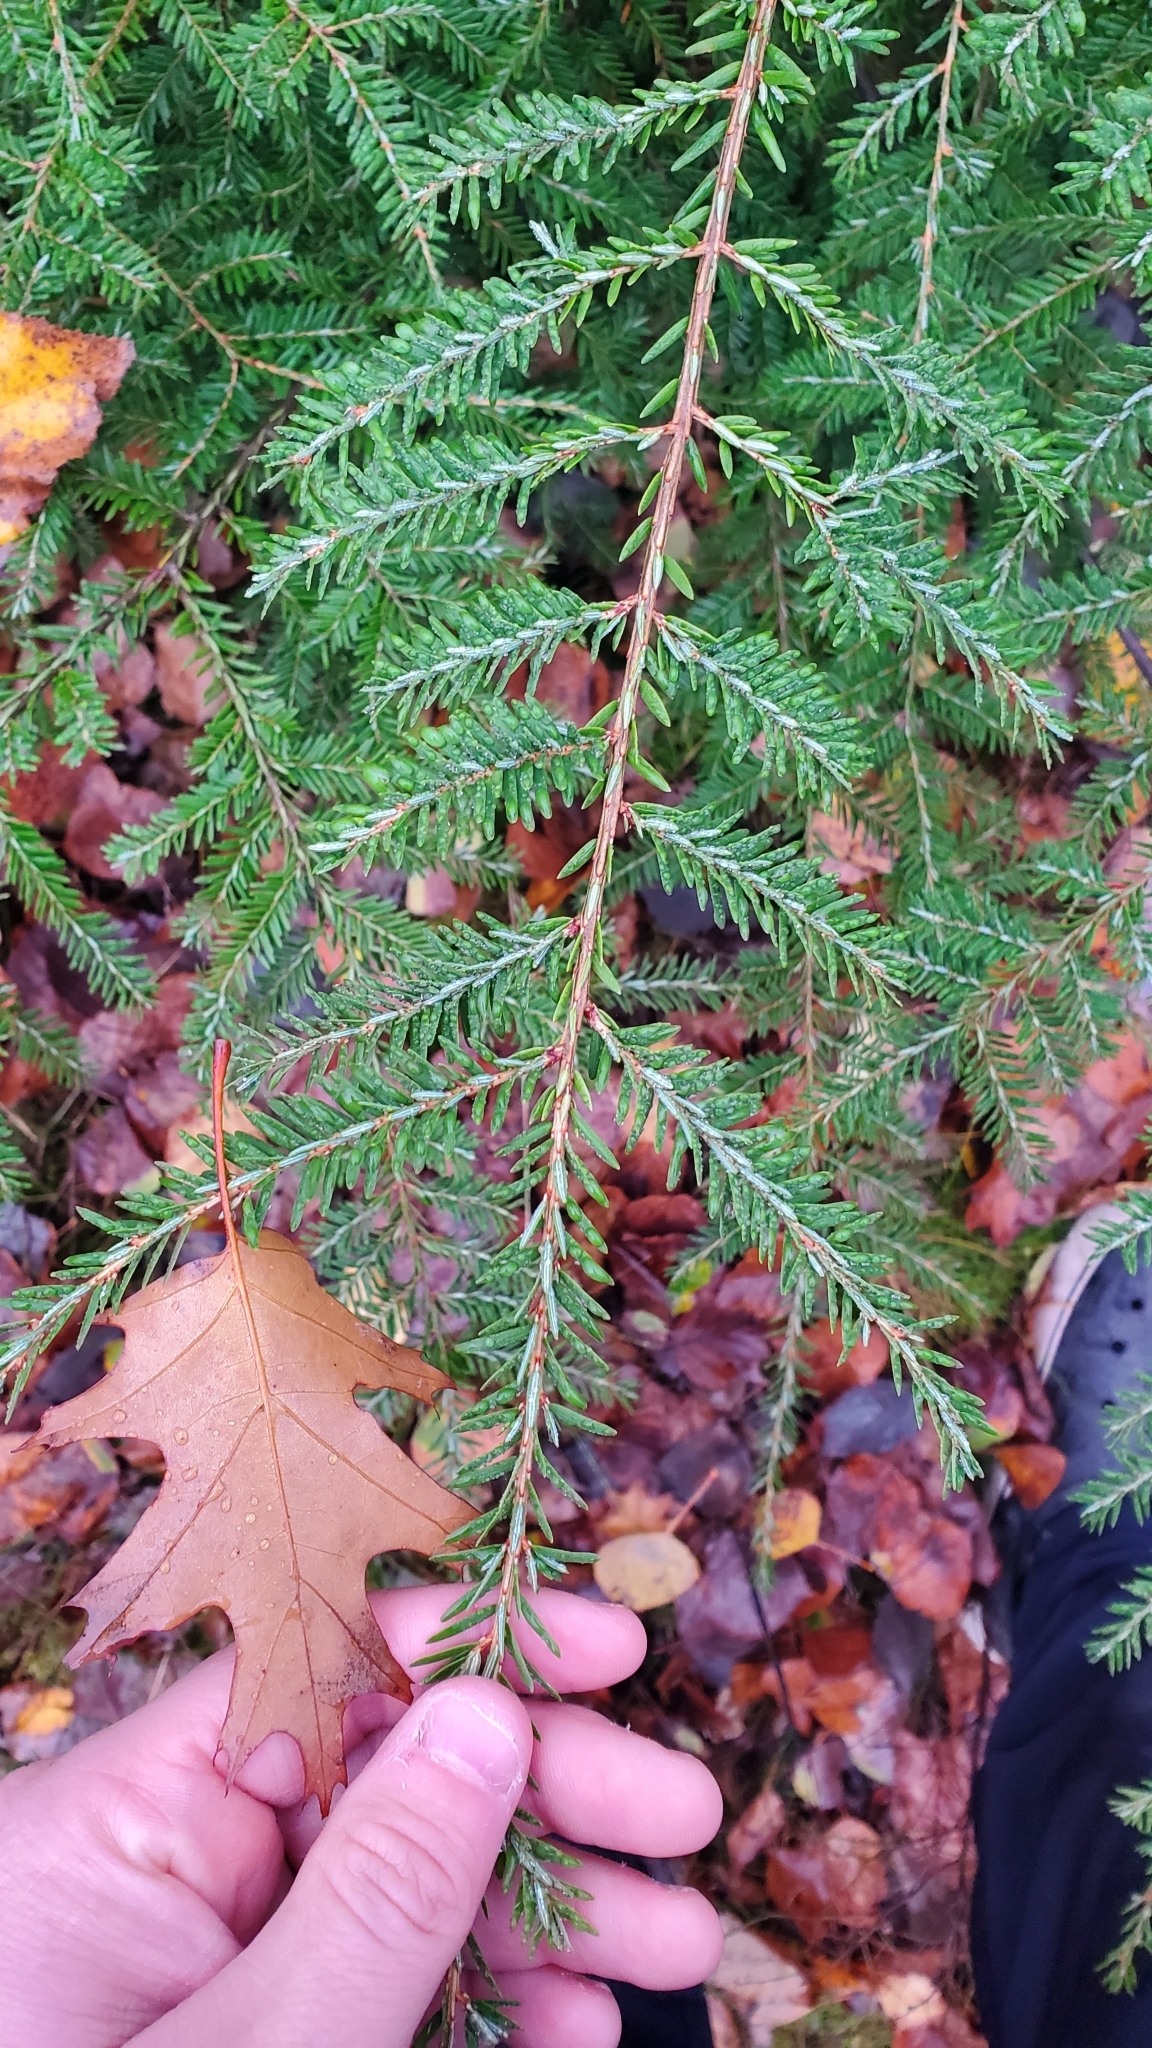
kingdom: Plantae
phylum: Tracheophyta
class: Pinopsida
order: Pinales
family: Pinaceae
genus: Tsuga
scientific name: Tsuga canadensis
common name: Eastern hemlock
